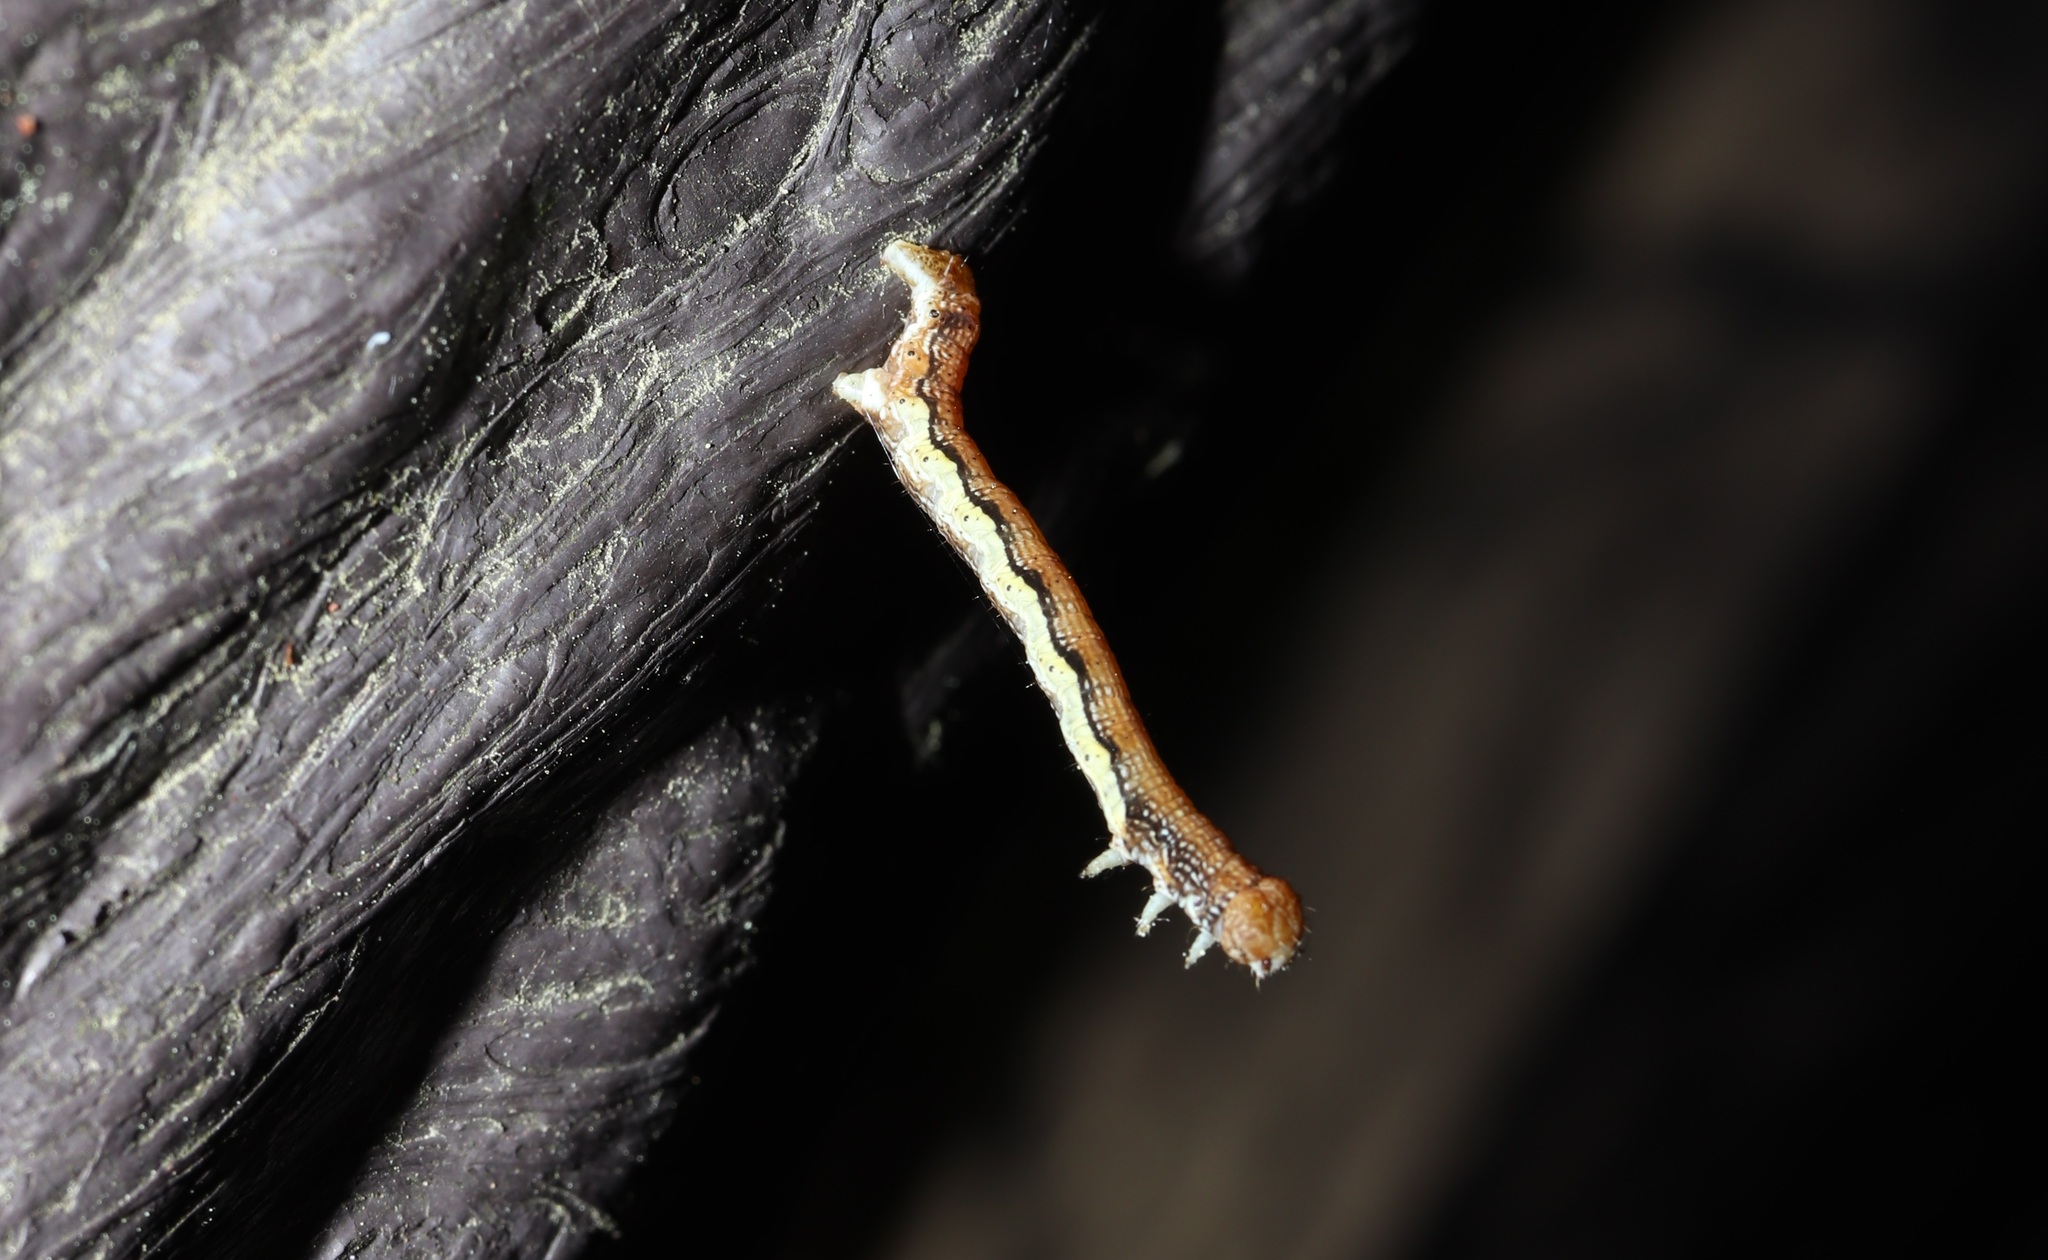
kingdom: Animalia
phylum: Arthropoda
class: Insecta
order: Lepidoptera
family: Geometridae
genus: Erannis
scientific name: Erannis golda
